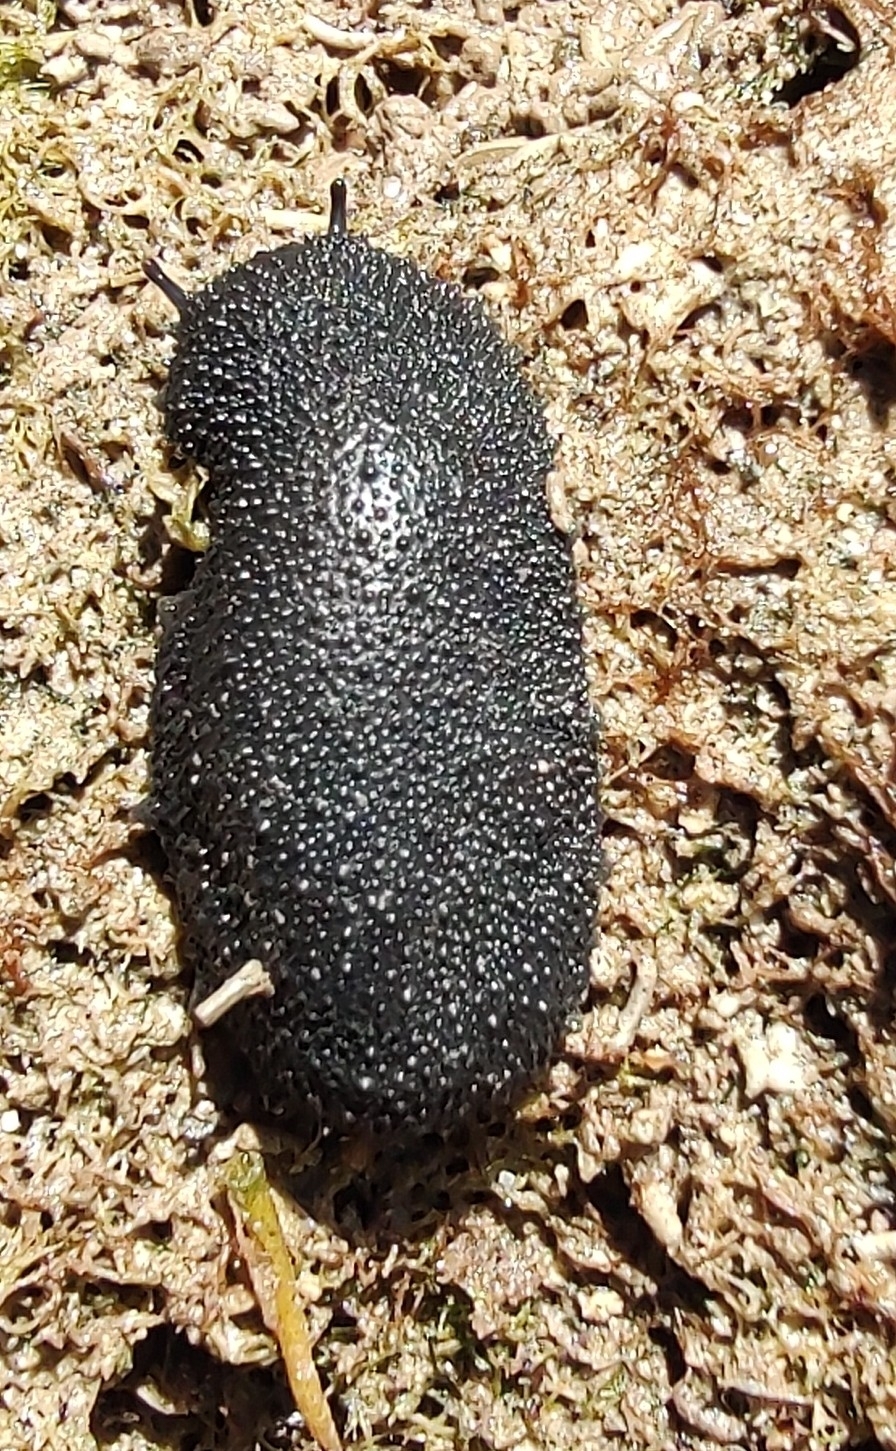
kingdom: Animalia
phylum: Mollusca
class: Gastropoda
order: Systellommatophora
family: Onchidiidae
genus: Onchidella
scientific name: Onchidella floridana
